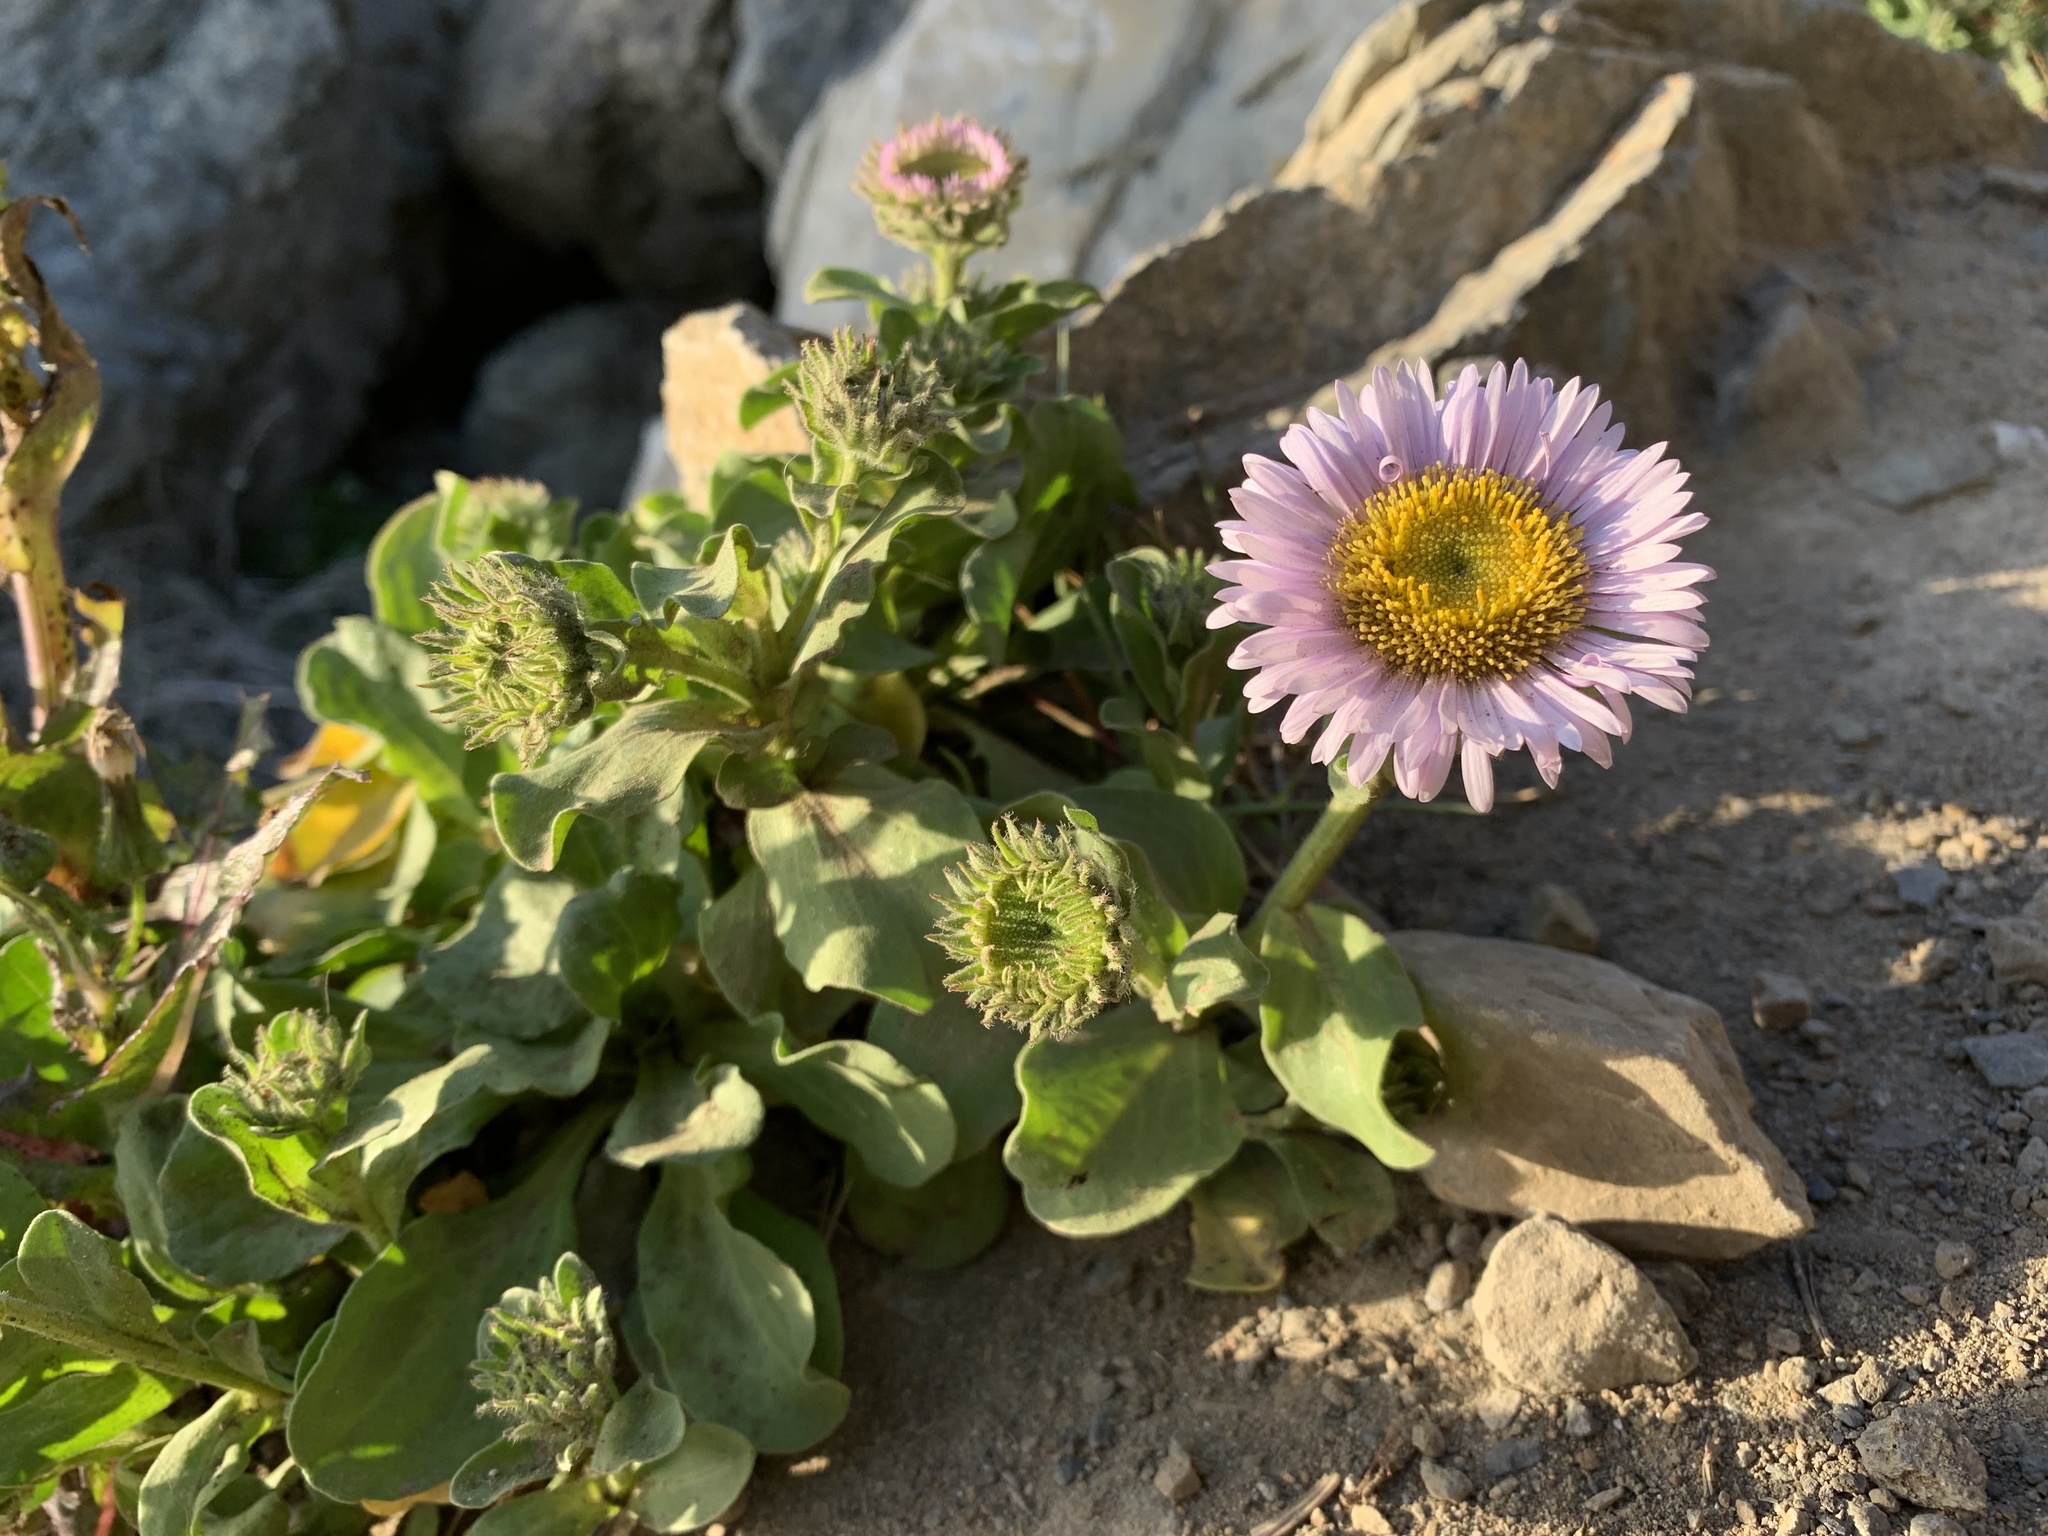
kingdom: Plantae
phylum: Tracheophyta
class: Magnoliopsida
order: Asterales
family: Asteraceae
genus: Erigeron
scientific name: Erigeron glaucus
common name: Seaside daisy
